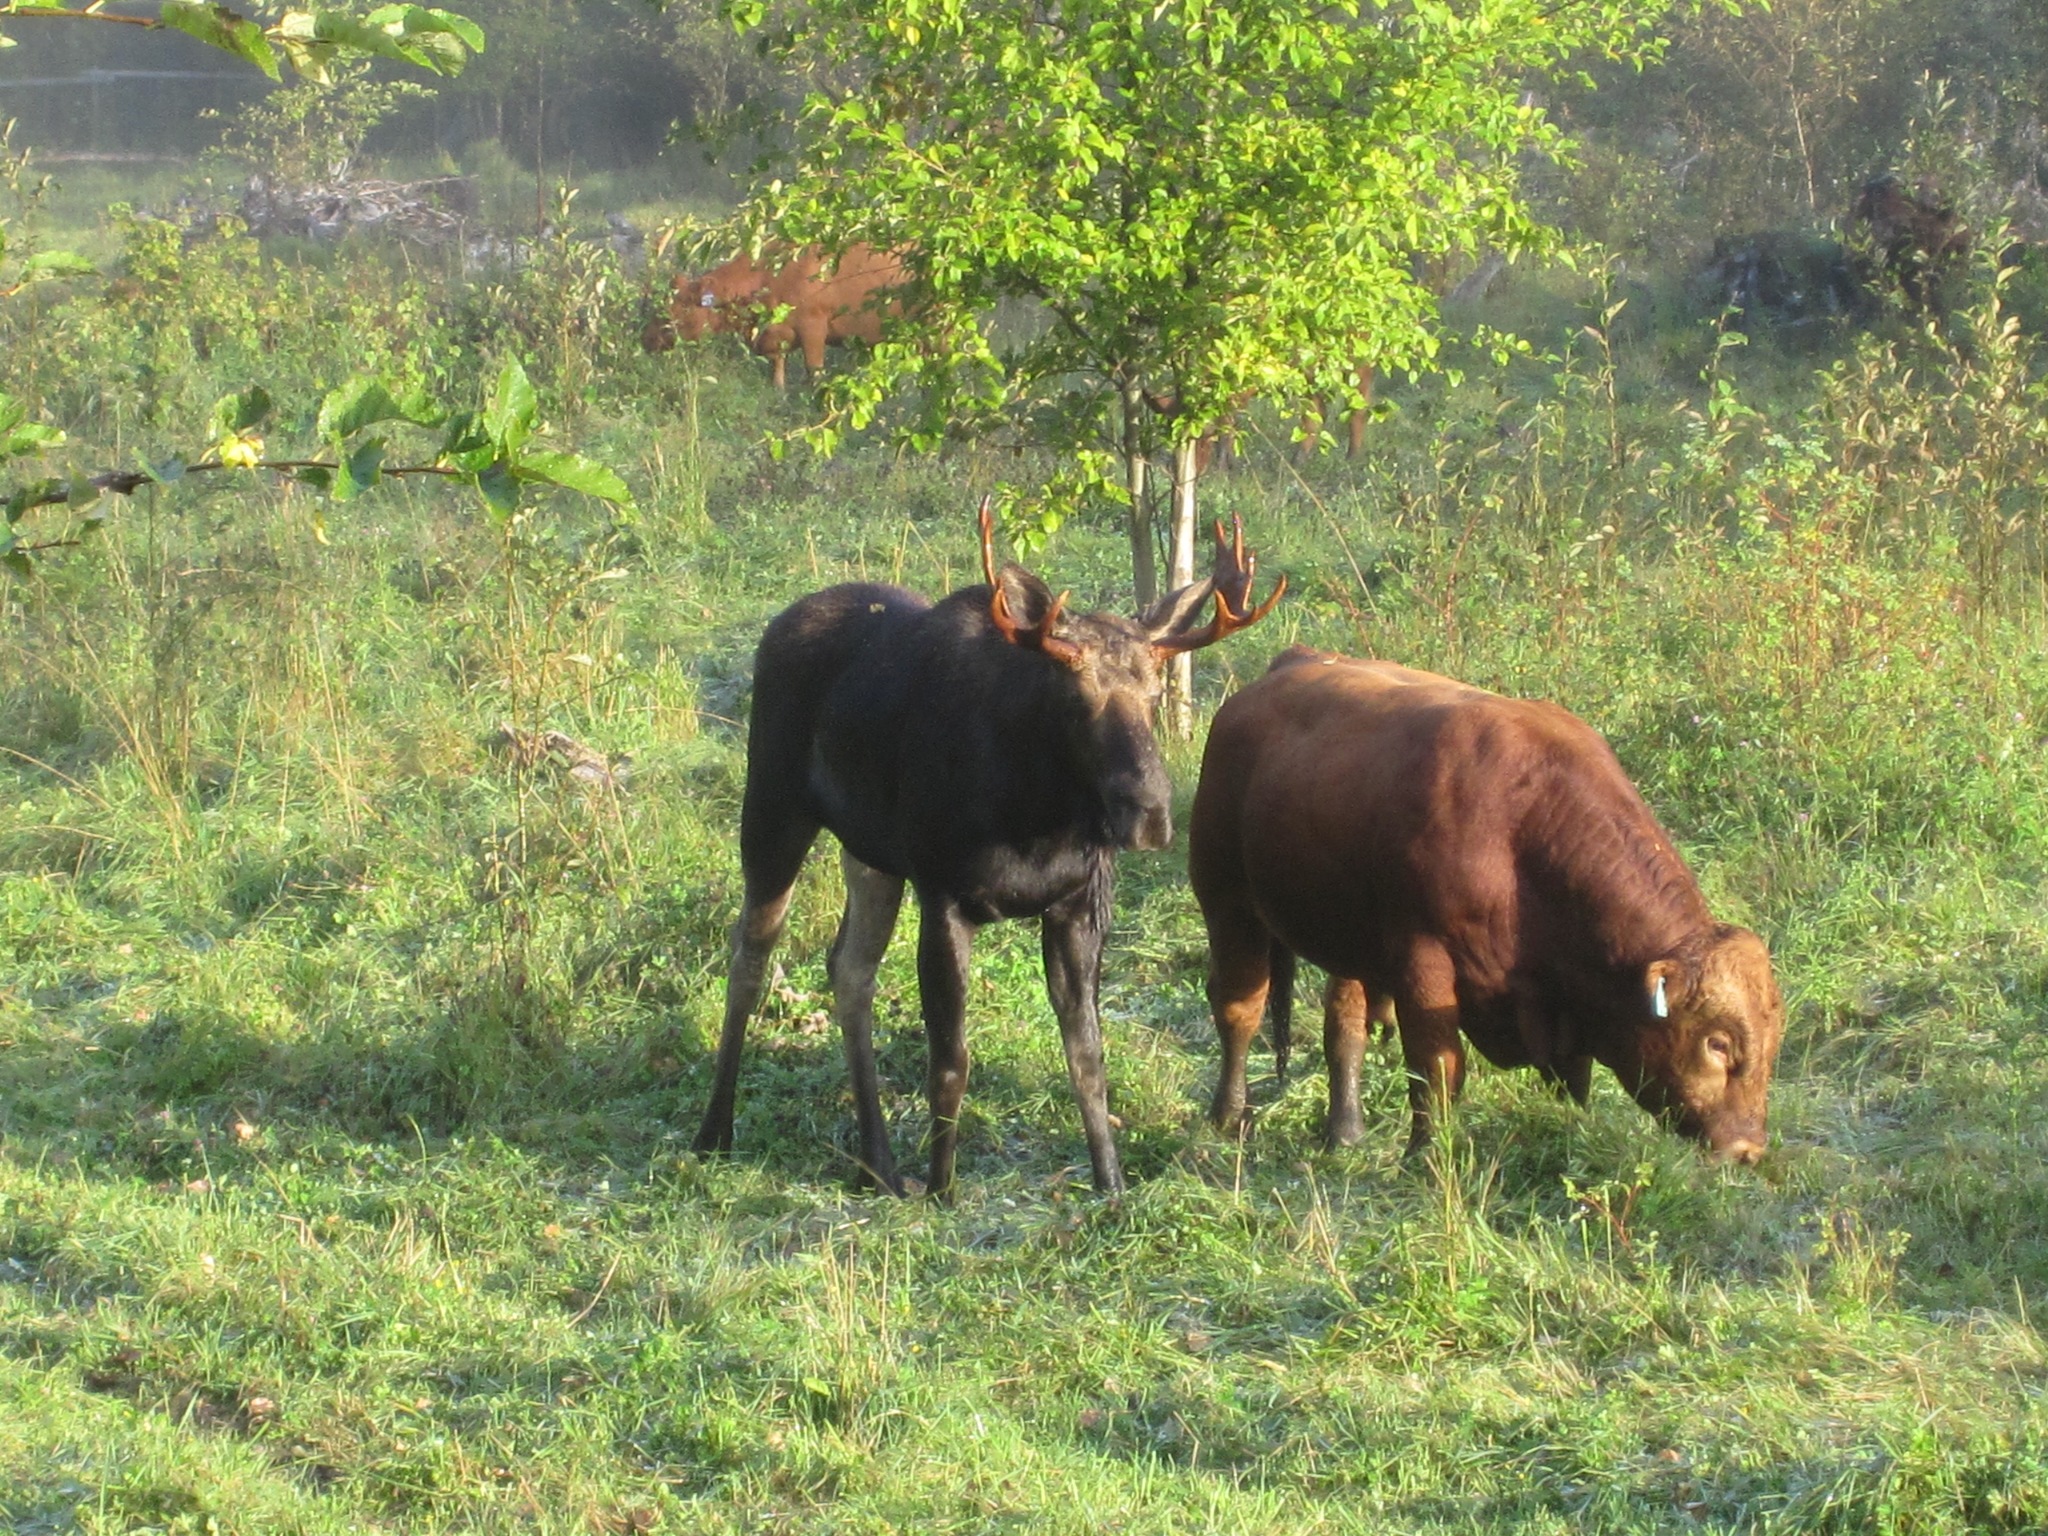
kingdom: Animalia
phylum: Chordata
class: Mammalia
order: Artiodactyla
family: Cervidae
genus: Alces
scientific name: Alces alces
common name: Moose
